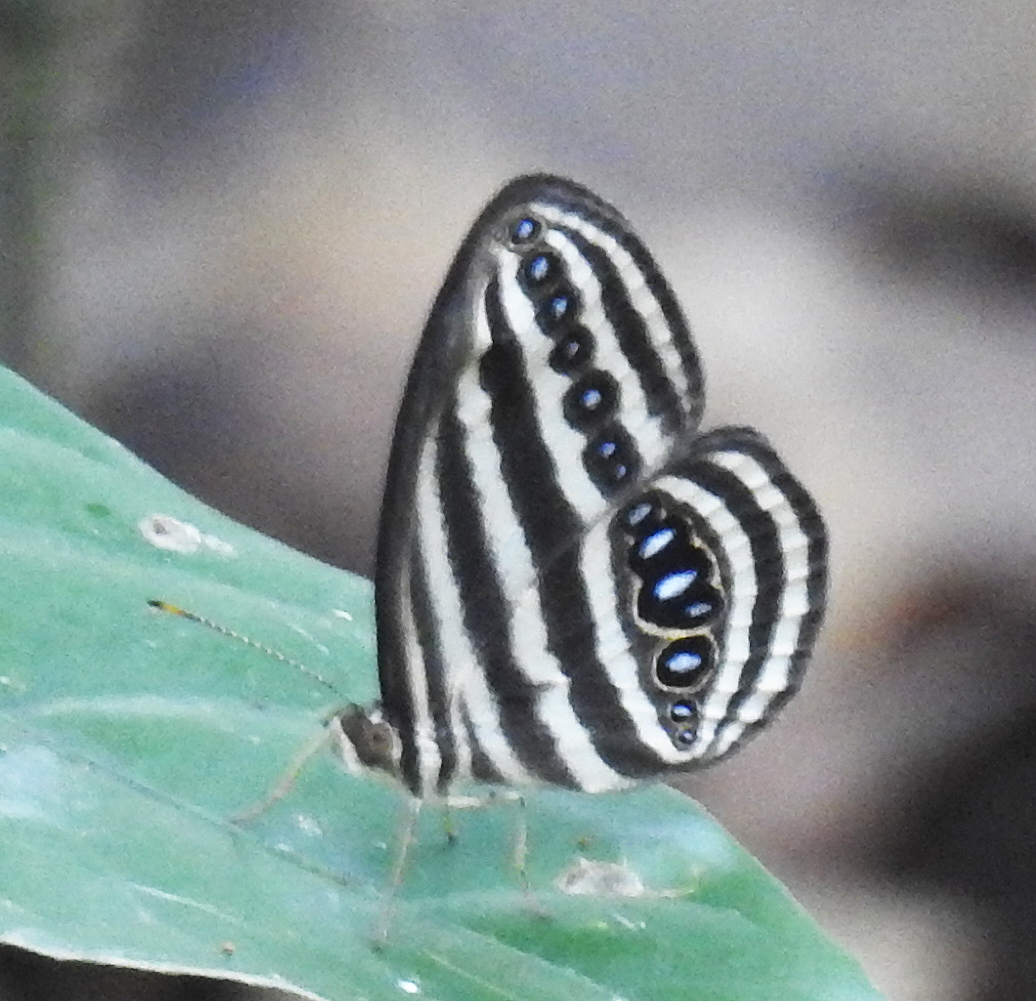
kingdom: Animalia
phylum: Arthropoda
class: Insecta
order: Lepidoptera
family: Nymphalidae
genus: Ragadia
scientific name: Ragadia crisilda
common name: White-striped ringlet
